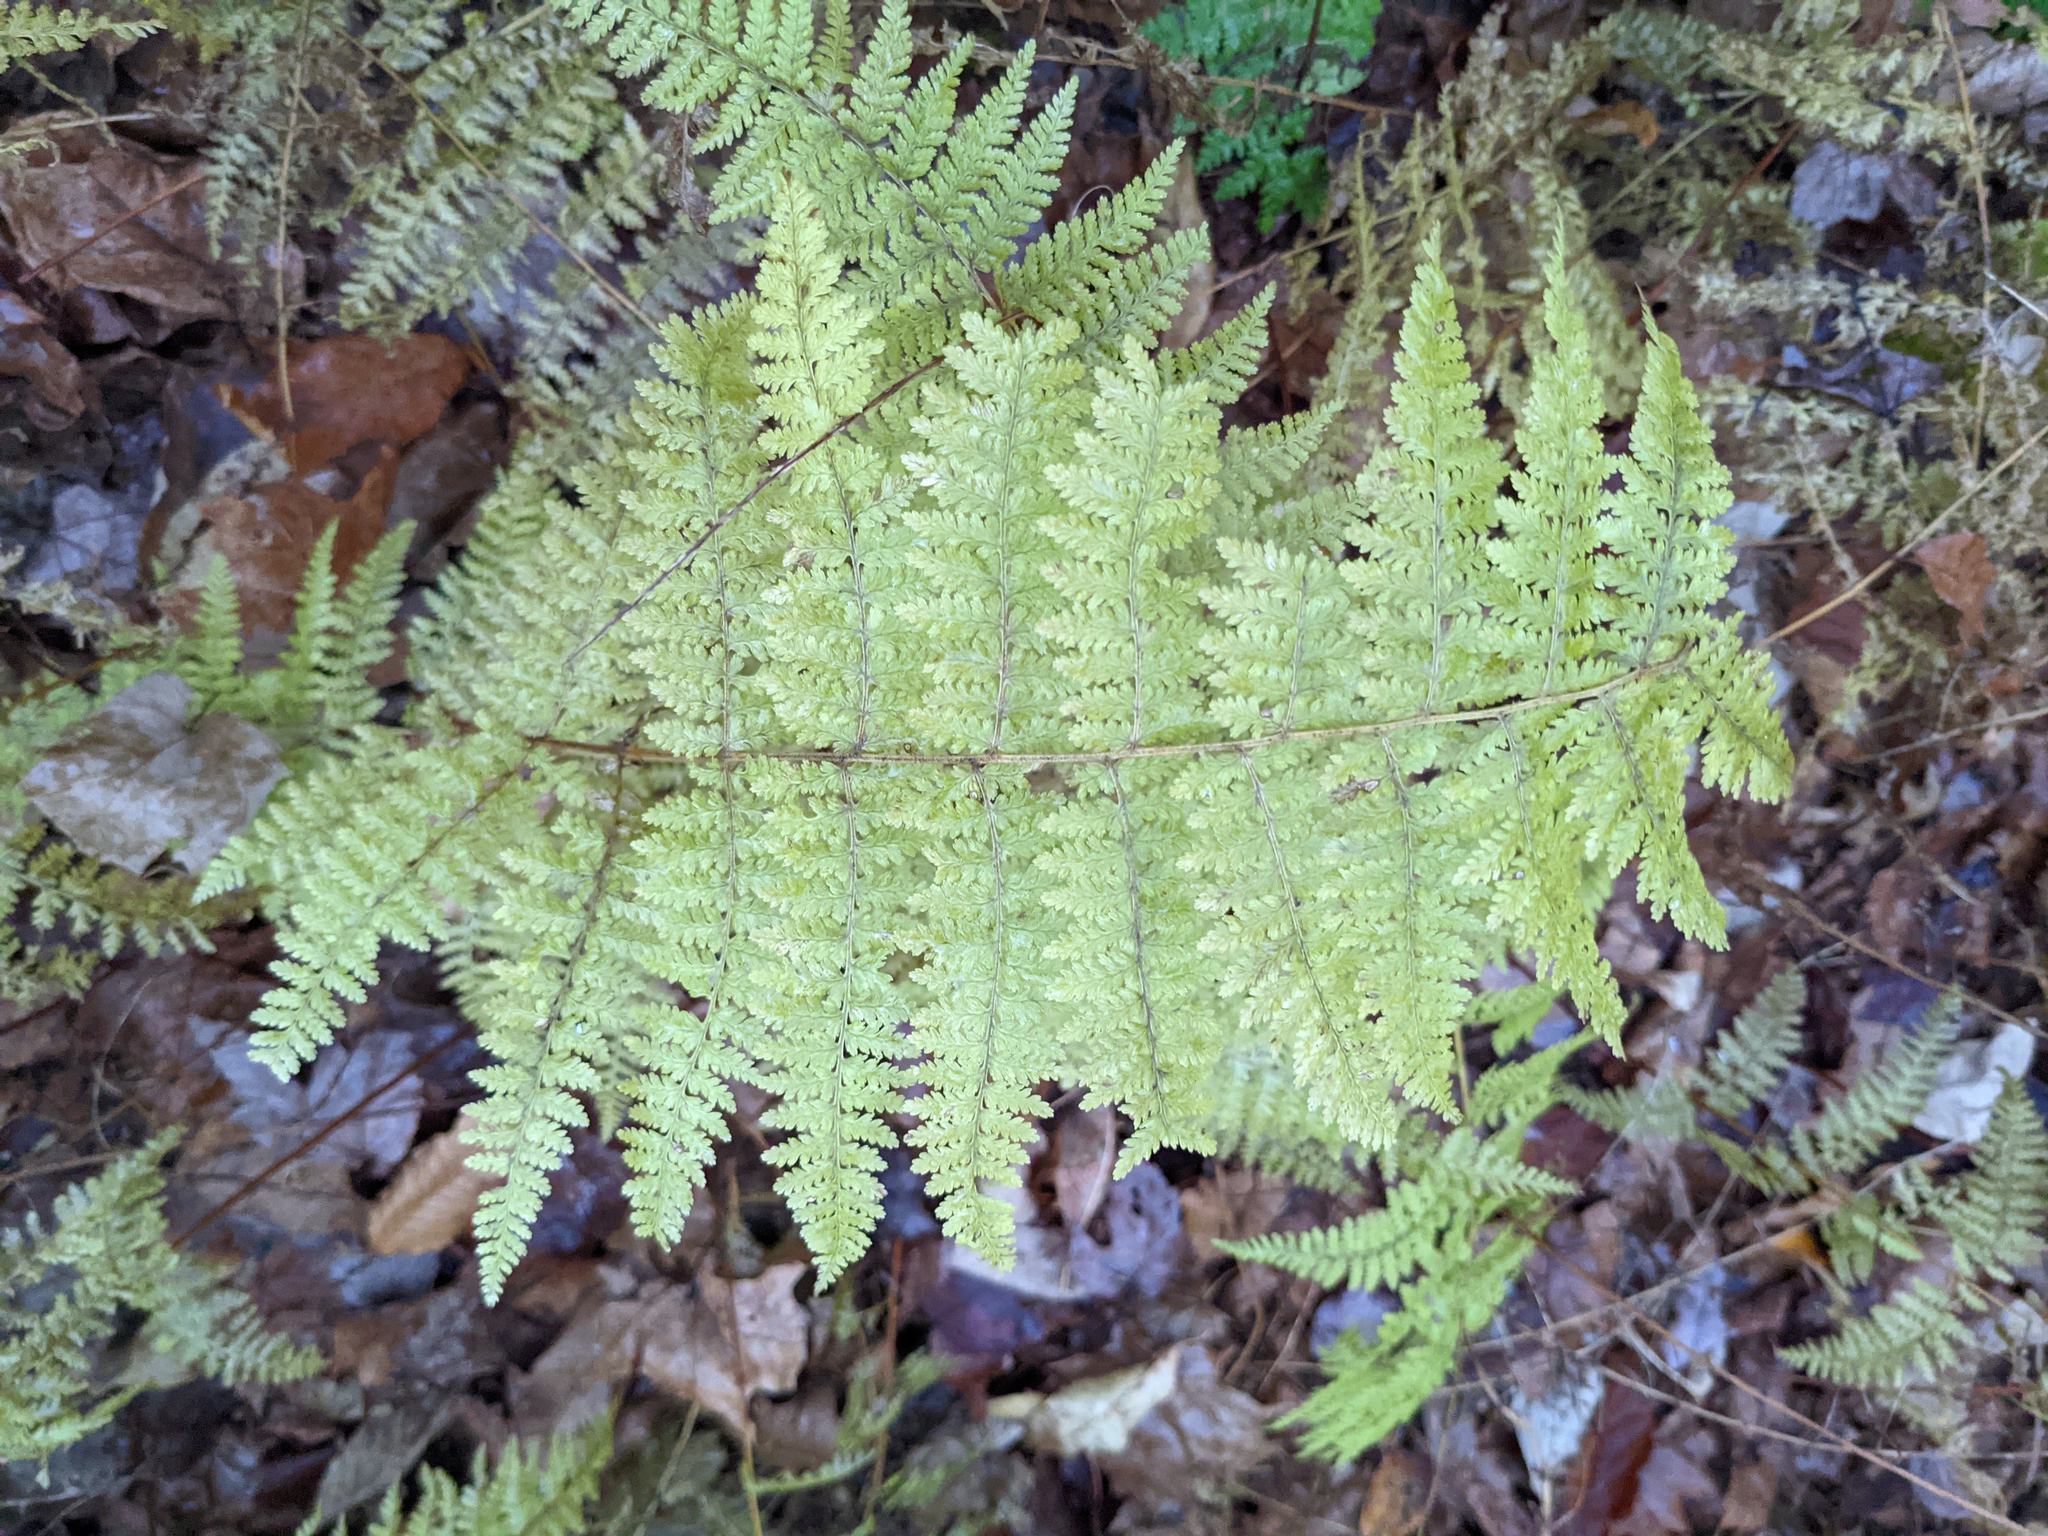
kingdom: Plantae
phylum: Tracheophyta
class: Polypodiopsida
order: Polypodiales
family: Dennstaedtiaceae
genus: Sitobolium
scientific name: Sitobolium punctilobum
